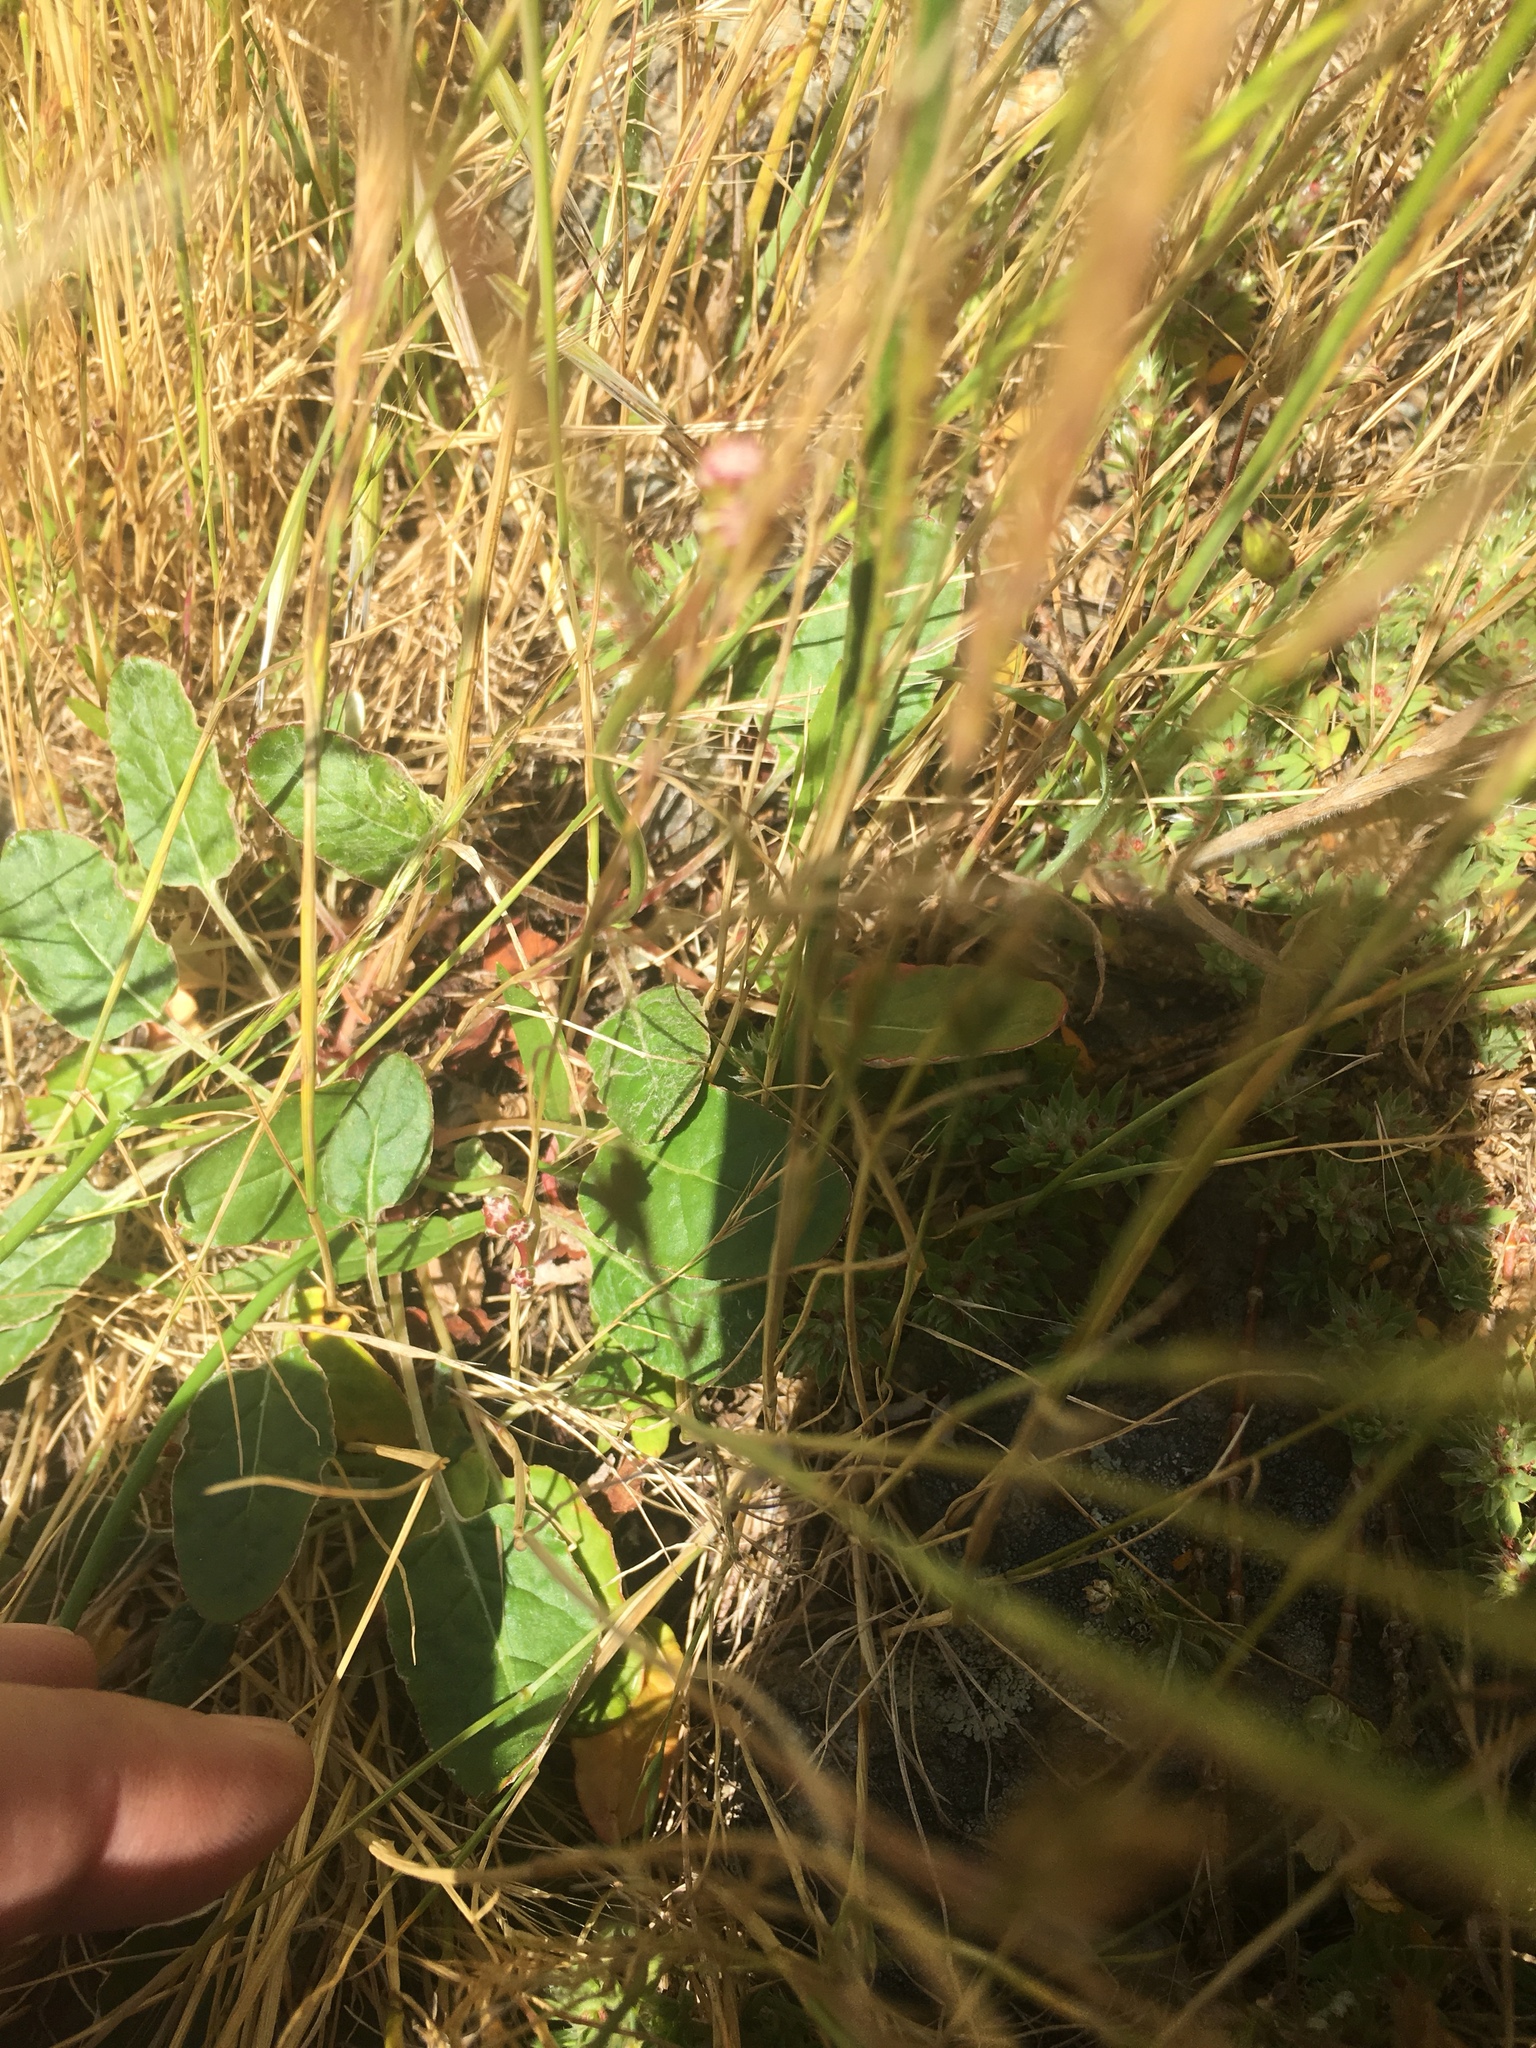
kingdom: Plantae
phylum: Tracheophyta
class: Magnoliopsida
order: Caryophyllales
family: Polygonaceae
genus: Eriogonum
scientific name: Eriogonum nudum
